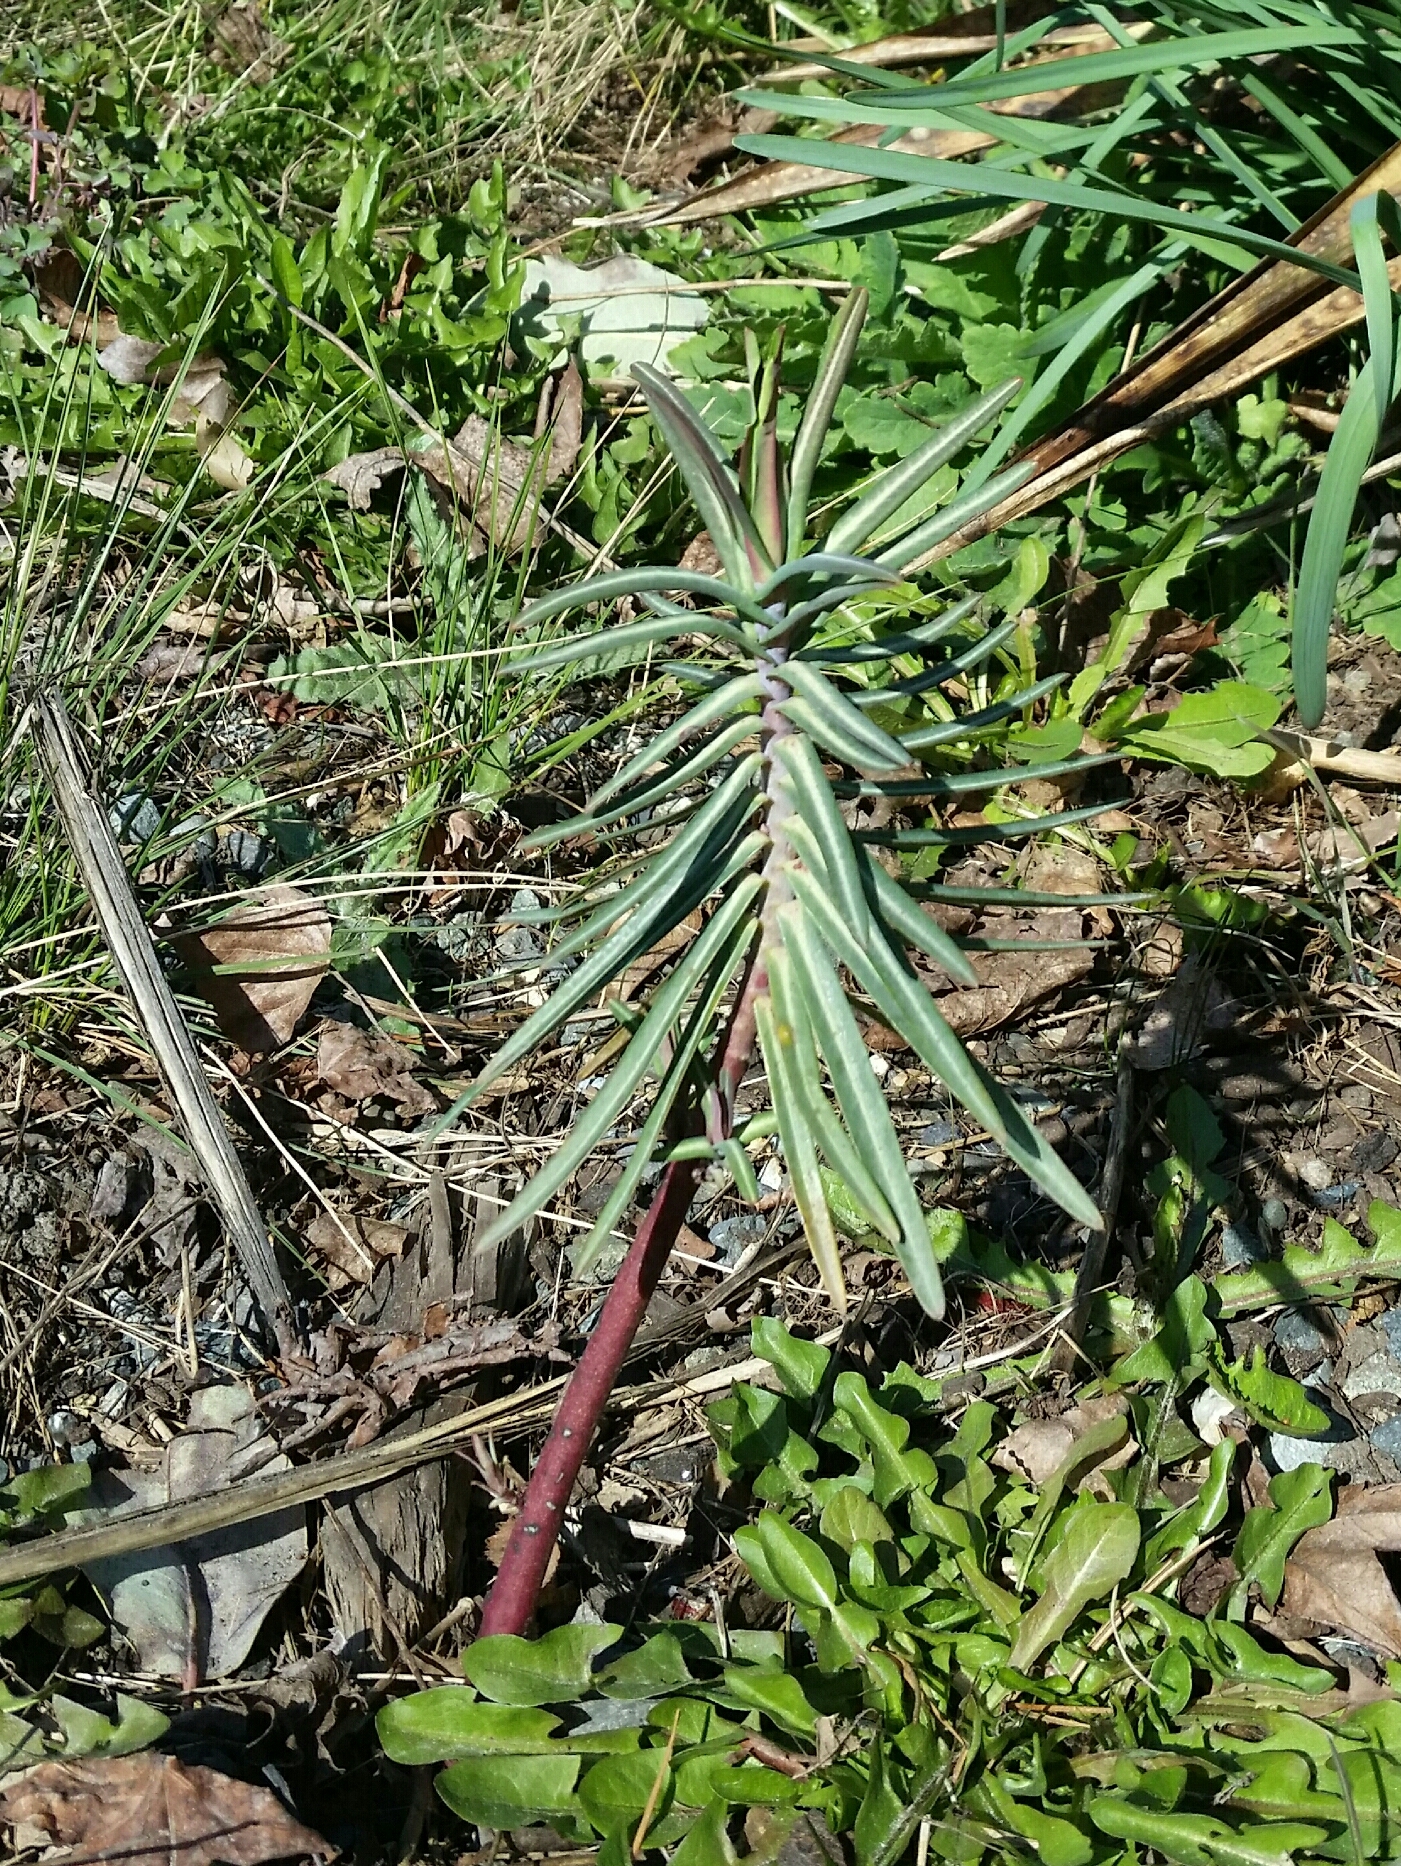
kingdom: Plantae
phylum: Tracheophyta
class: Magnoliopsida
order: Malpighiales
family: Euphorbiaceae
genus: Euphorbia
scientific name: Euphorbia lathyris
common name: Caper spurge
